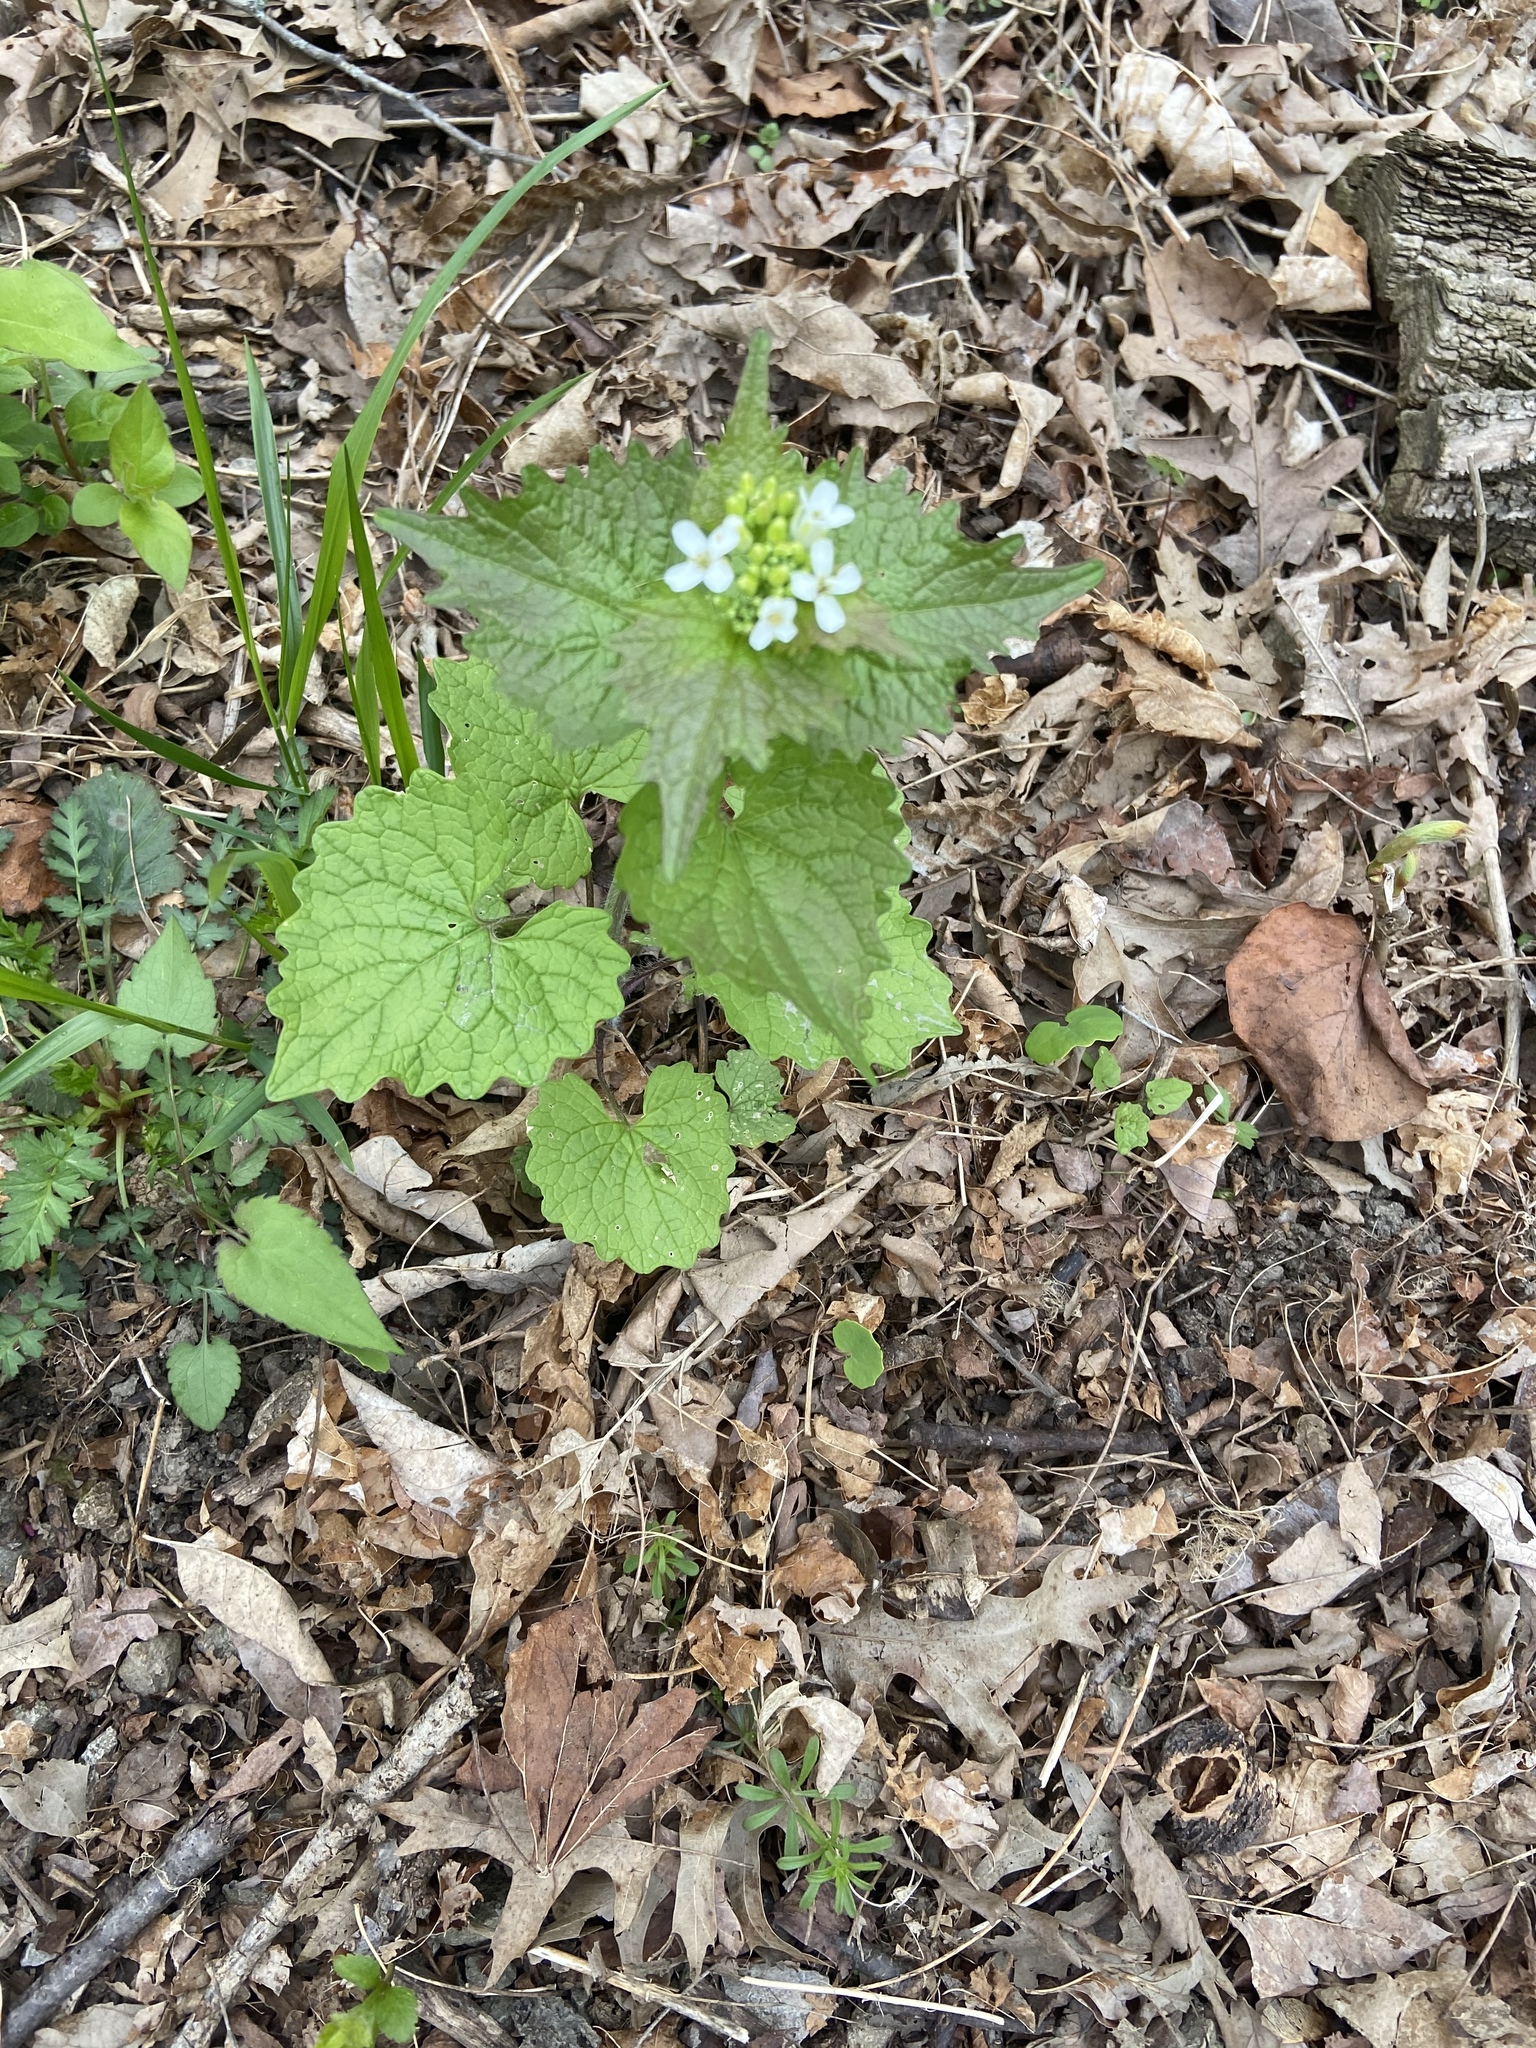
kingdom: Plantae
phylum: Tracheophyta
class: Magnoliopsida
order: Brassicales
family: Brassicaceae
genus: Alliaria
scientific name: Alliaria petiolata
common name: Garlic mustard
